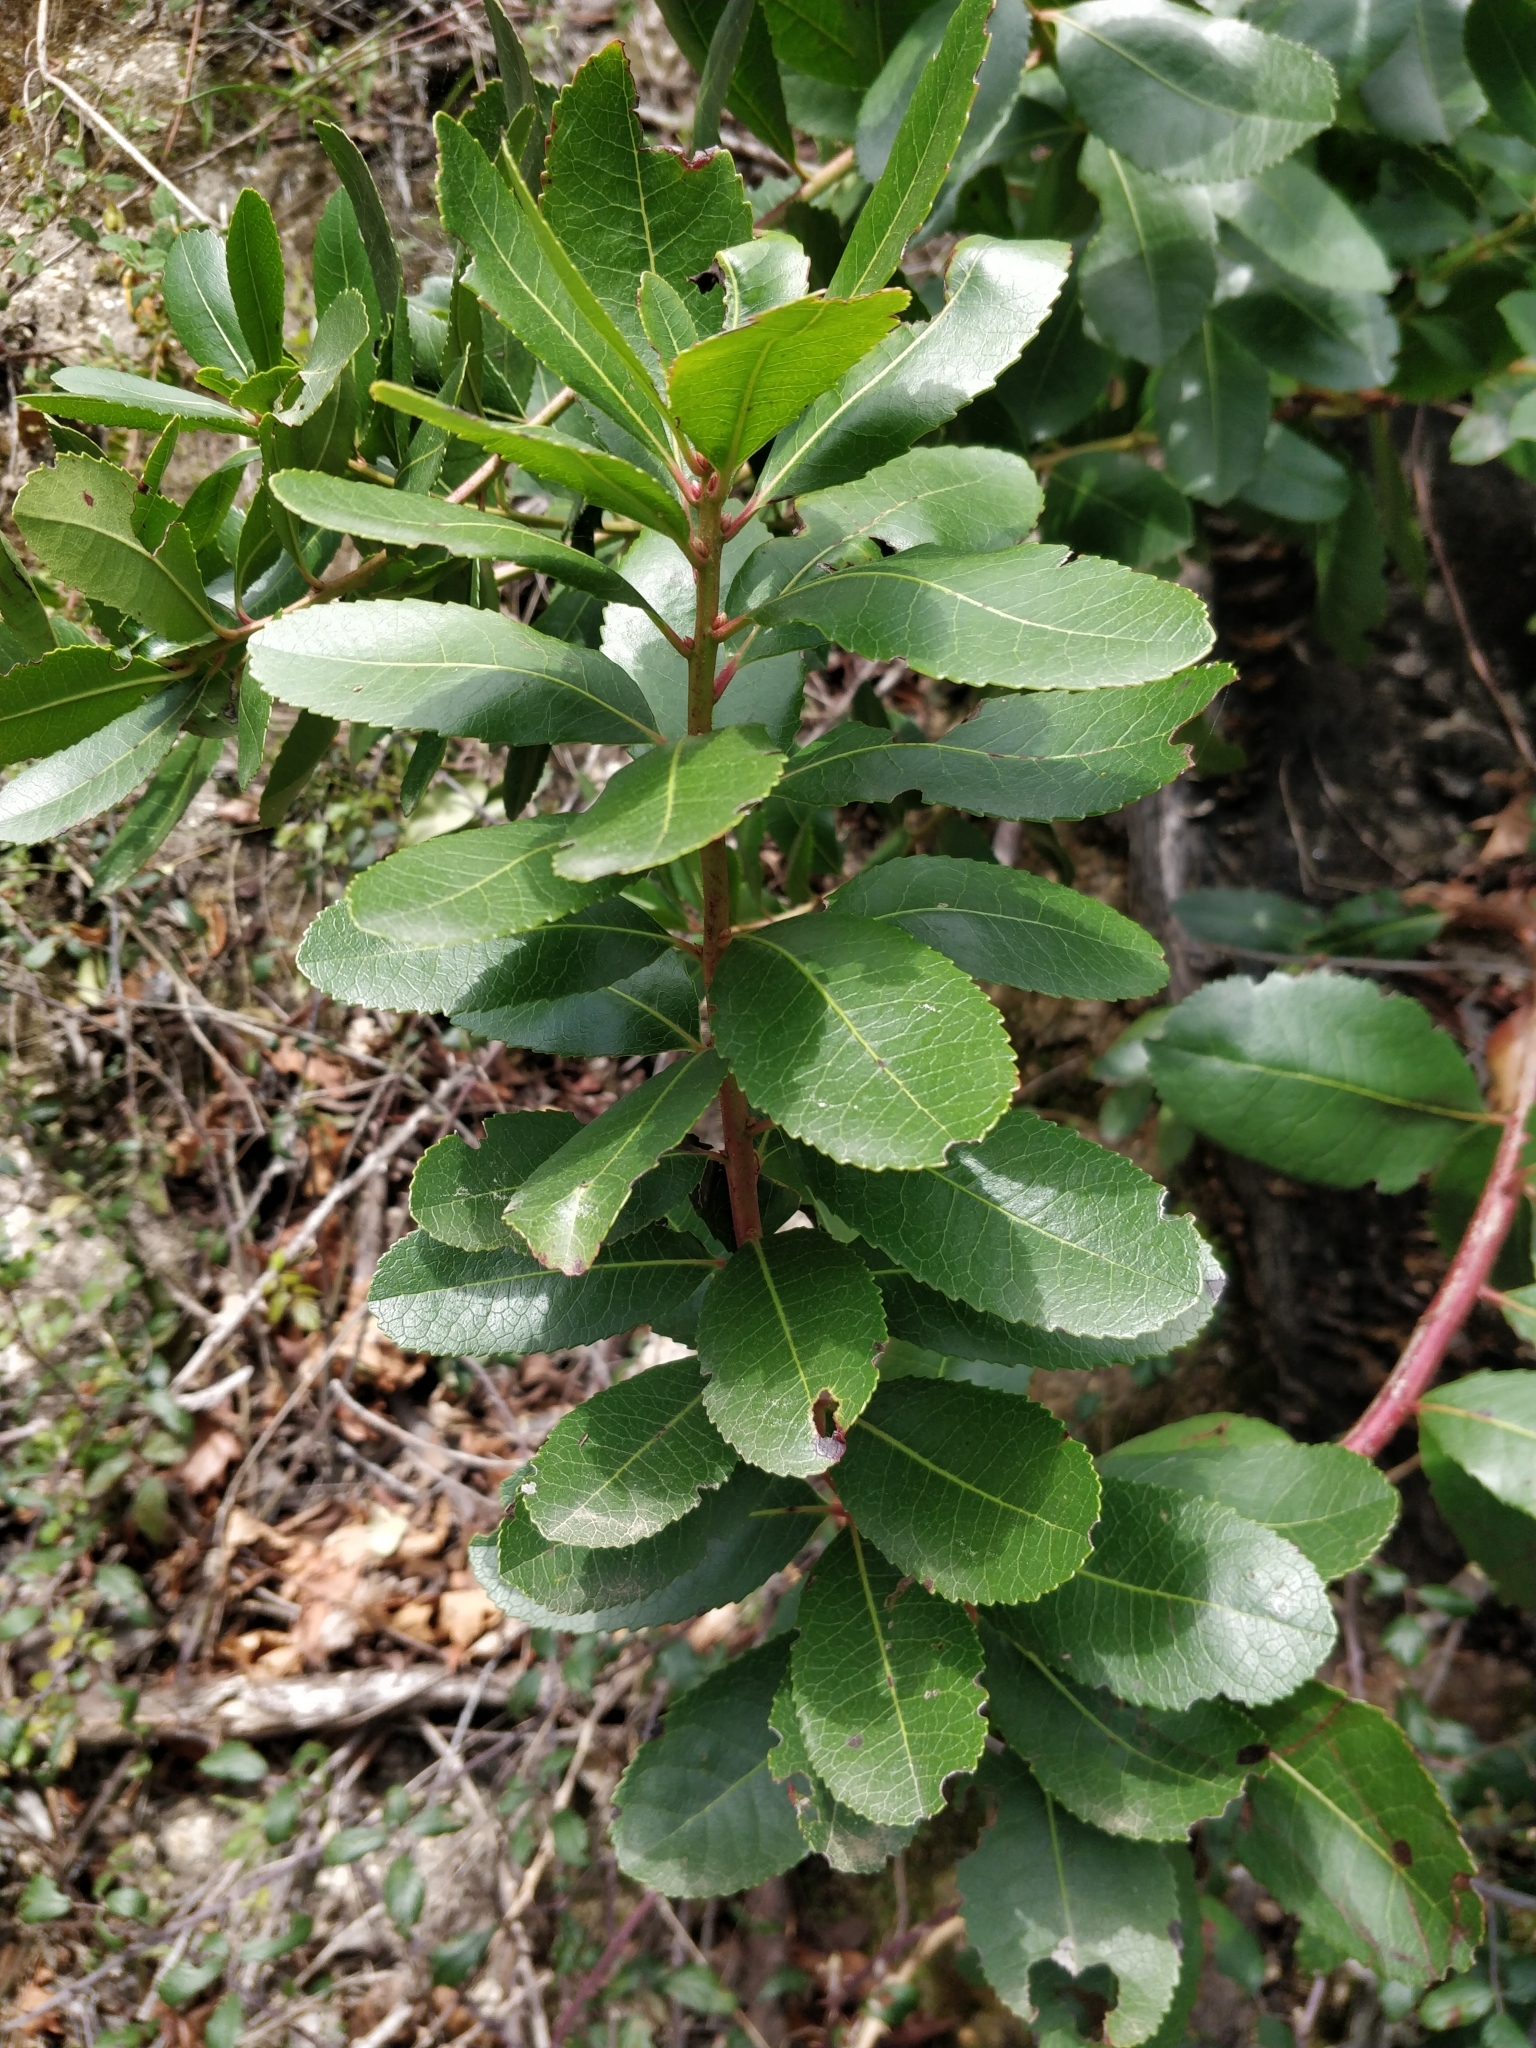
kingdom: Plantae
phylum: Tracheophyta
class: Magnoliopsida
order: Ericales
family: Ericaceae
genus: Arbutus
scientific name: Arbutus unedo
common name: Strawberry-tree
